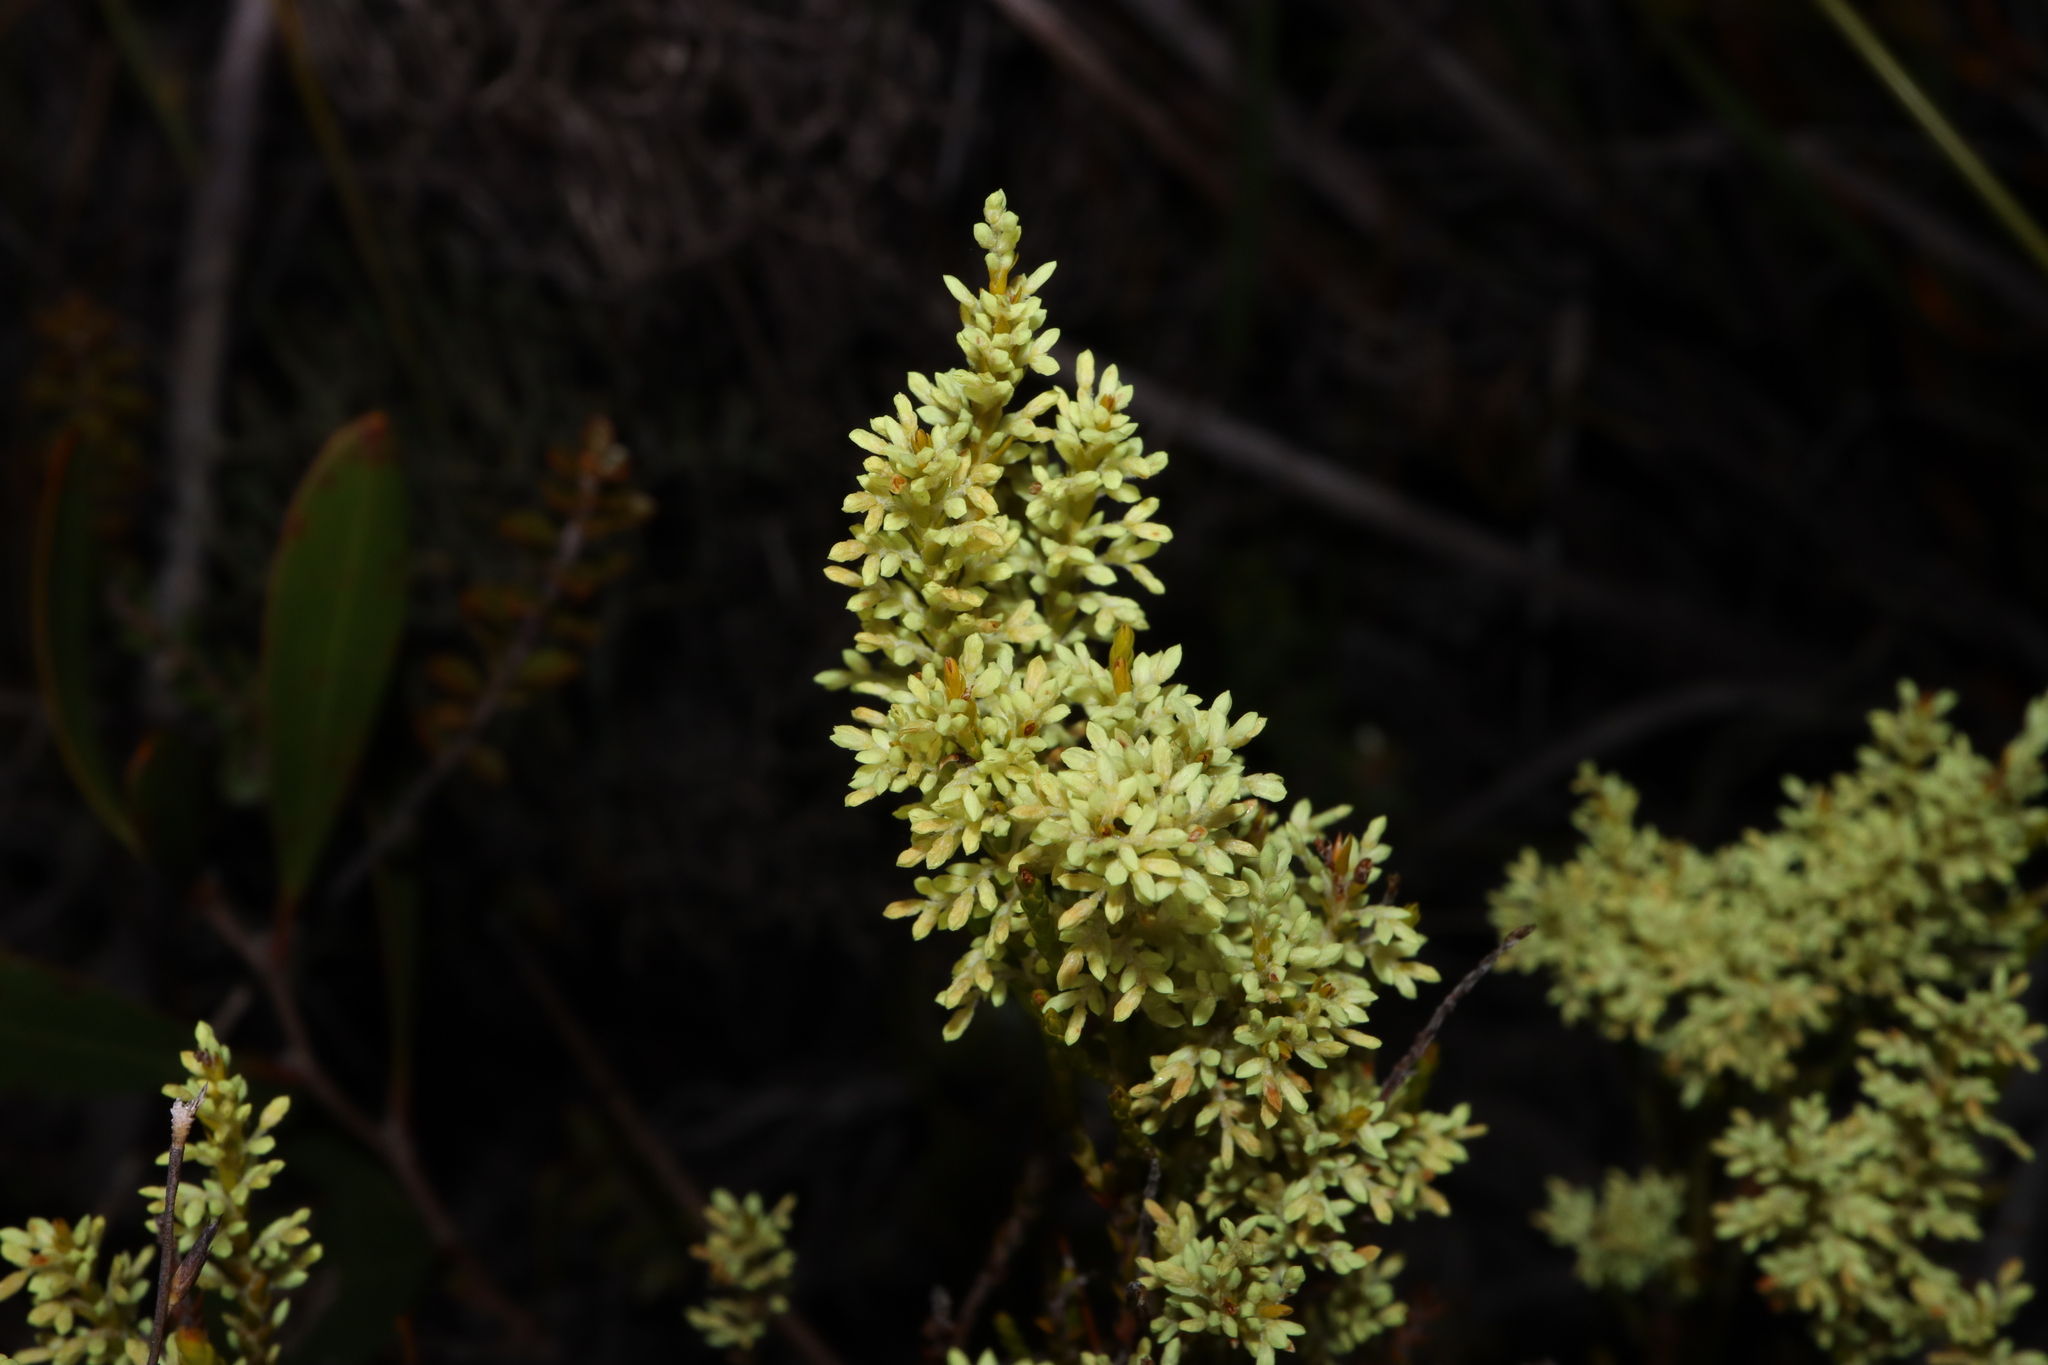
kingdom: Plantae
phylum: Tracheophyta
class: Magnoliopsida
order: Ericales
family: Ericaceae
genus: Oligarrhena
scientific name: Oligarrhena micrantha
